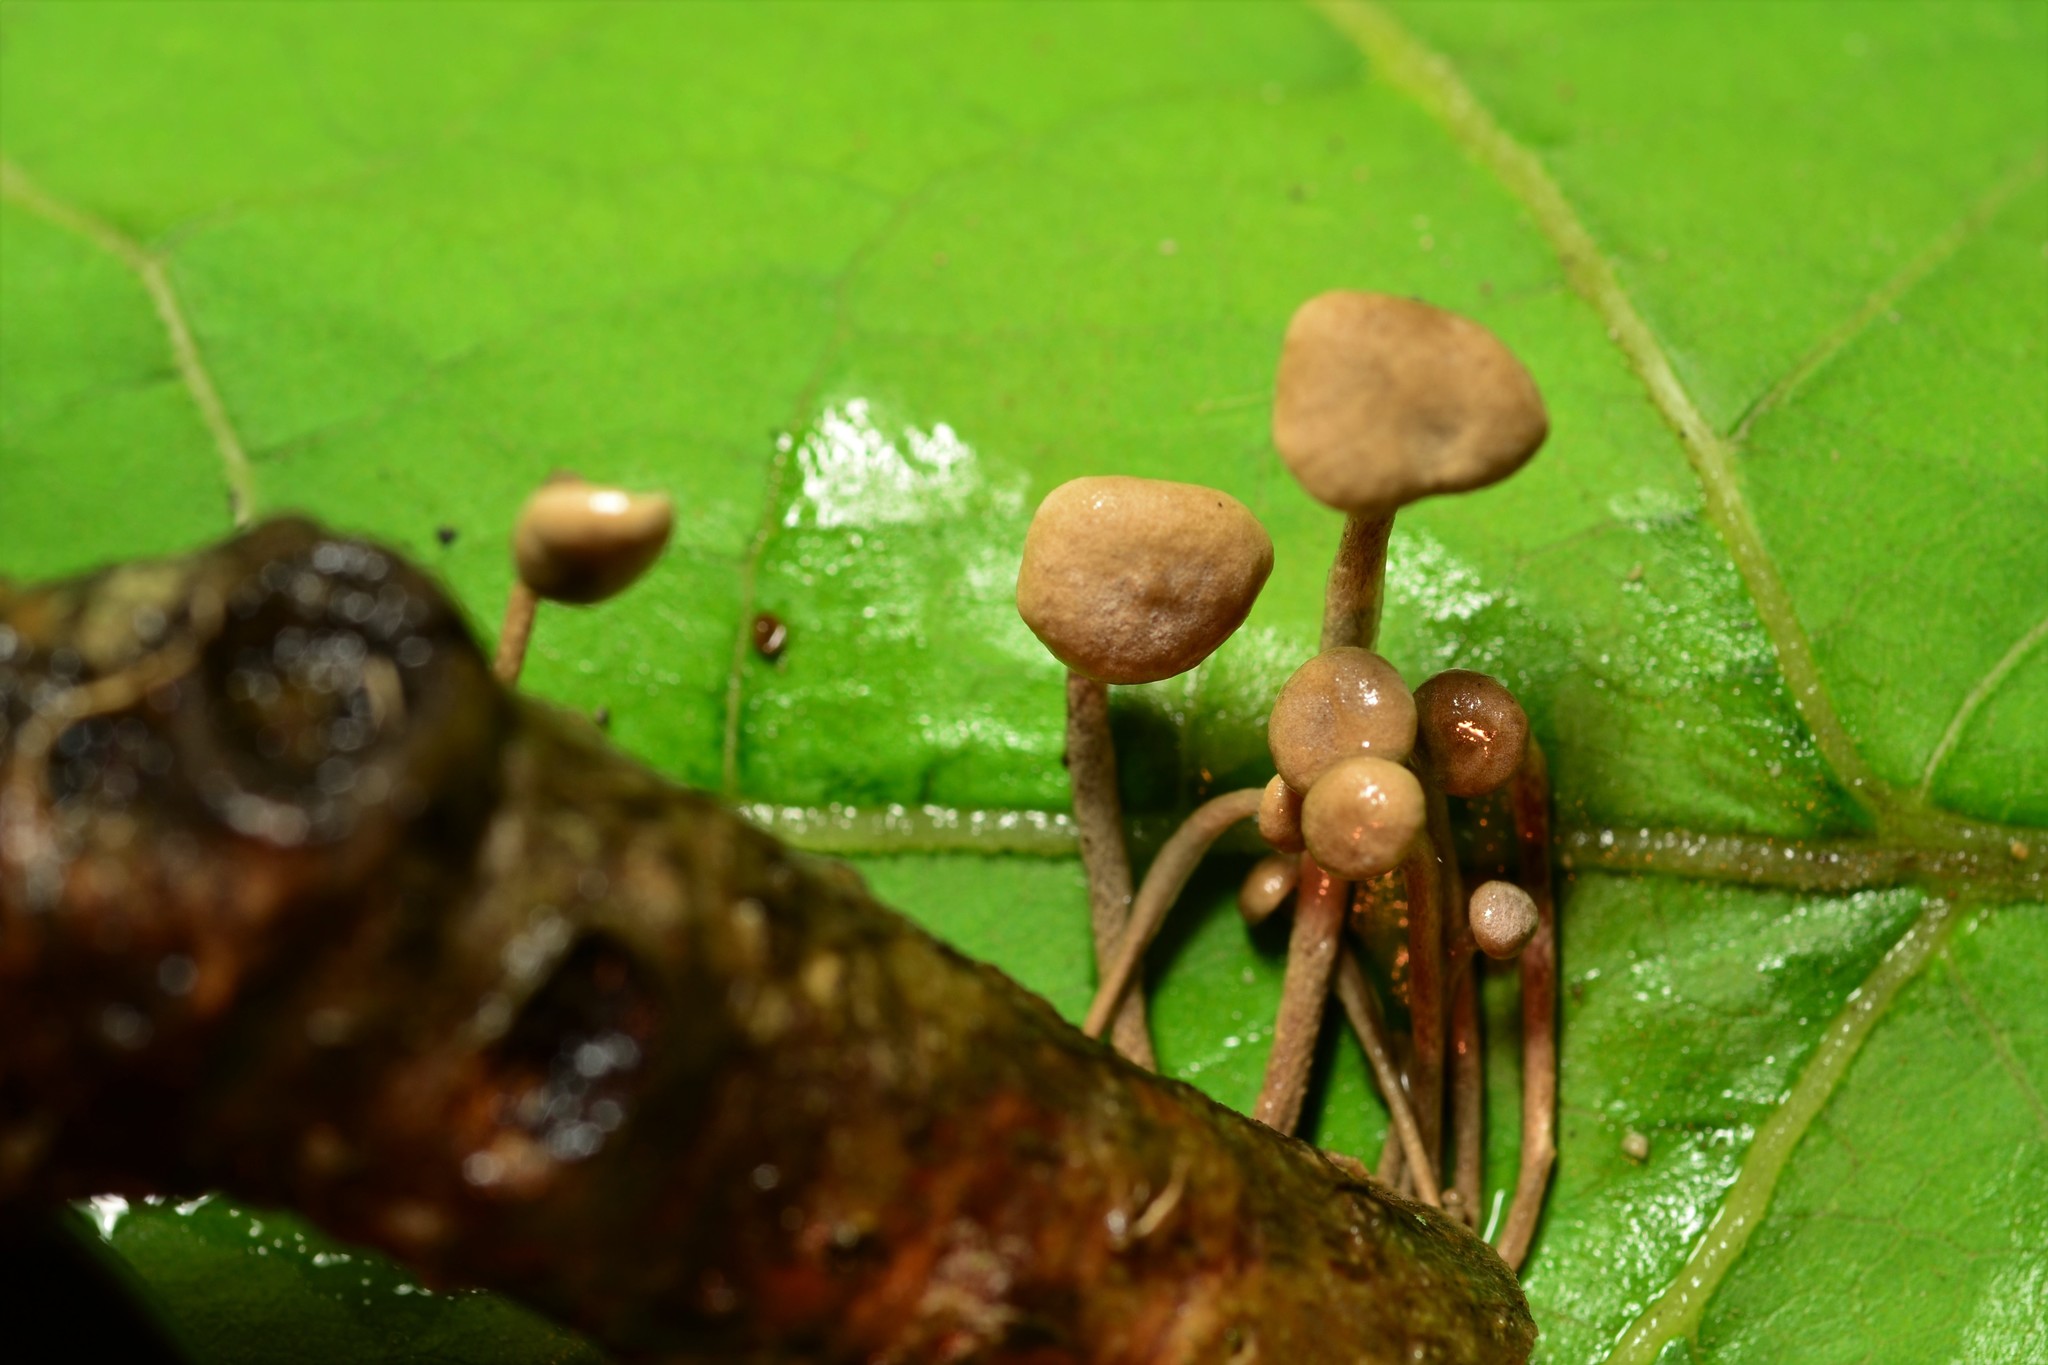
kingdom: Fungi
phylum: Basidiomycota
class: Agaricomycetes
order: Agaricales
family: Omphalotaceae
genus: Mycetinis
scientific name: Mycetinis opacus
